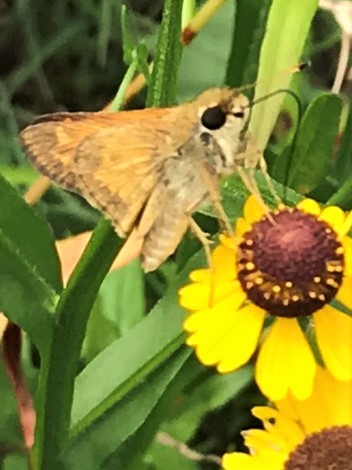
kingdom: Animalia
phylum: Arthropoda
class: Insecta
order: Lepidoptera
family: Hesperiidae
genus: Atalopedes
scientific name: Atalopedes
